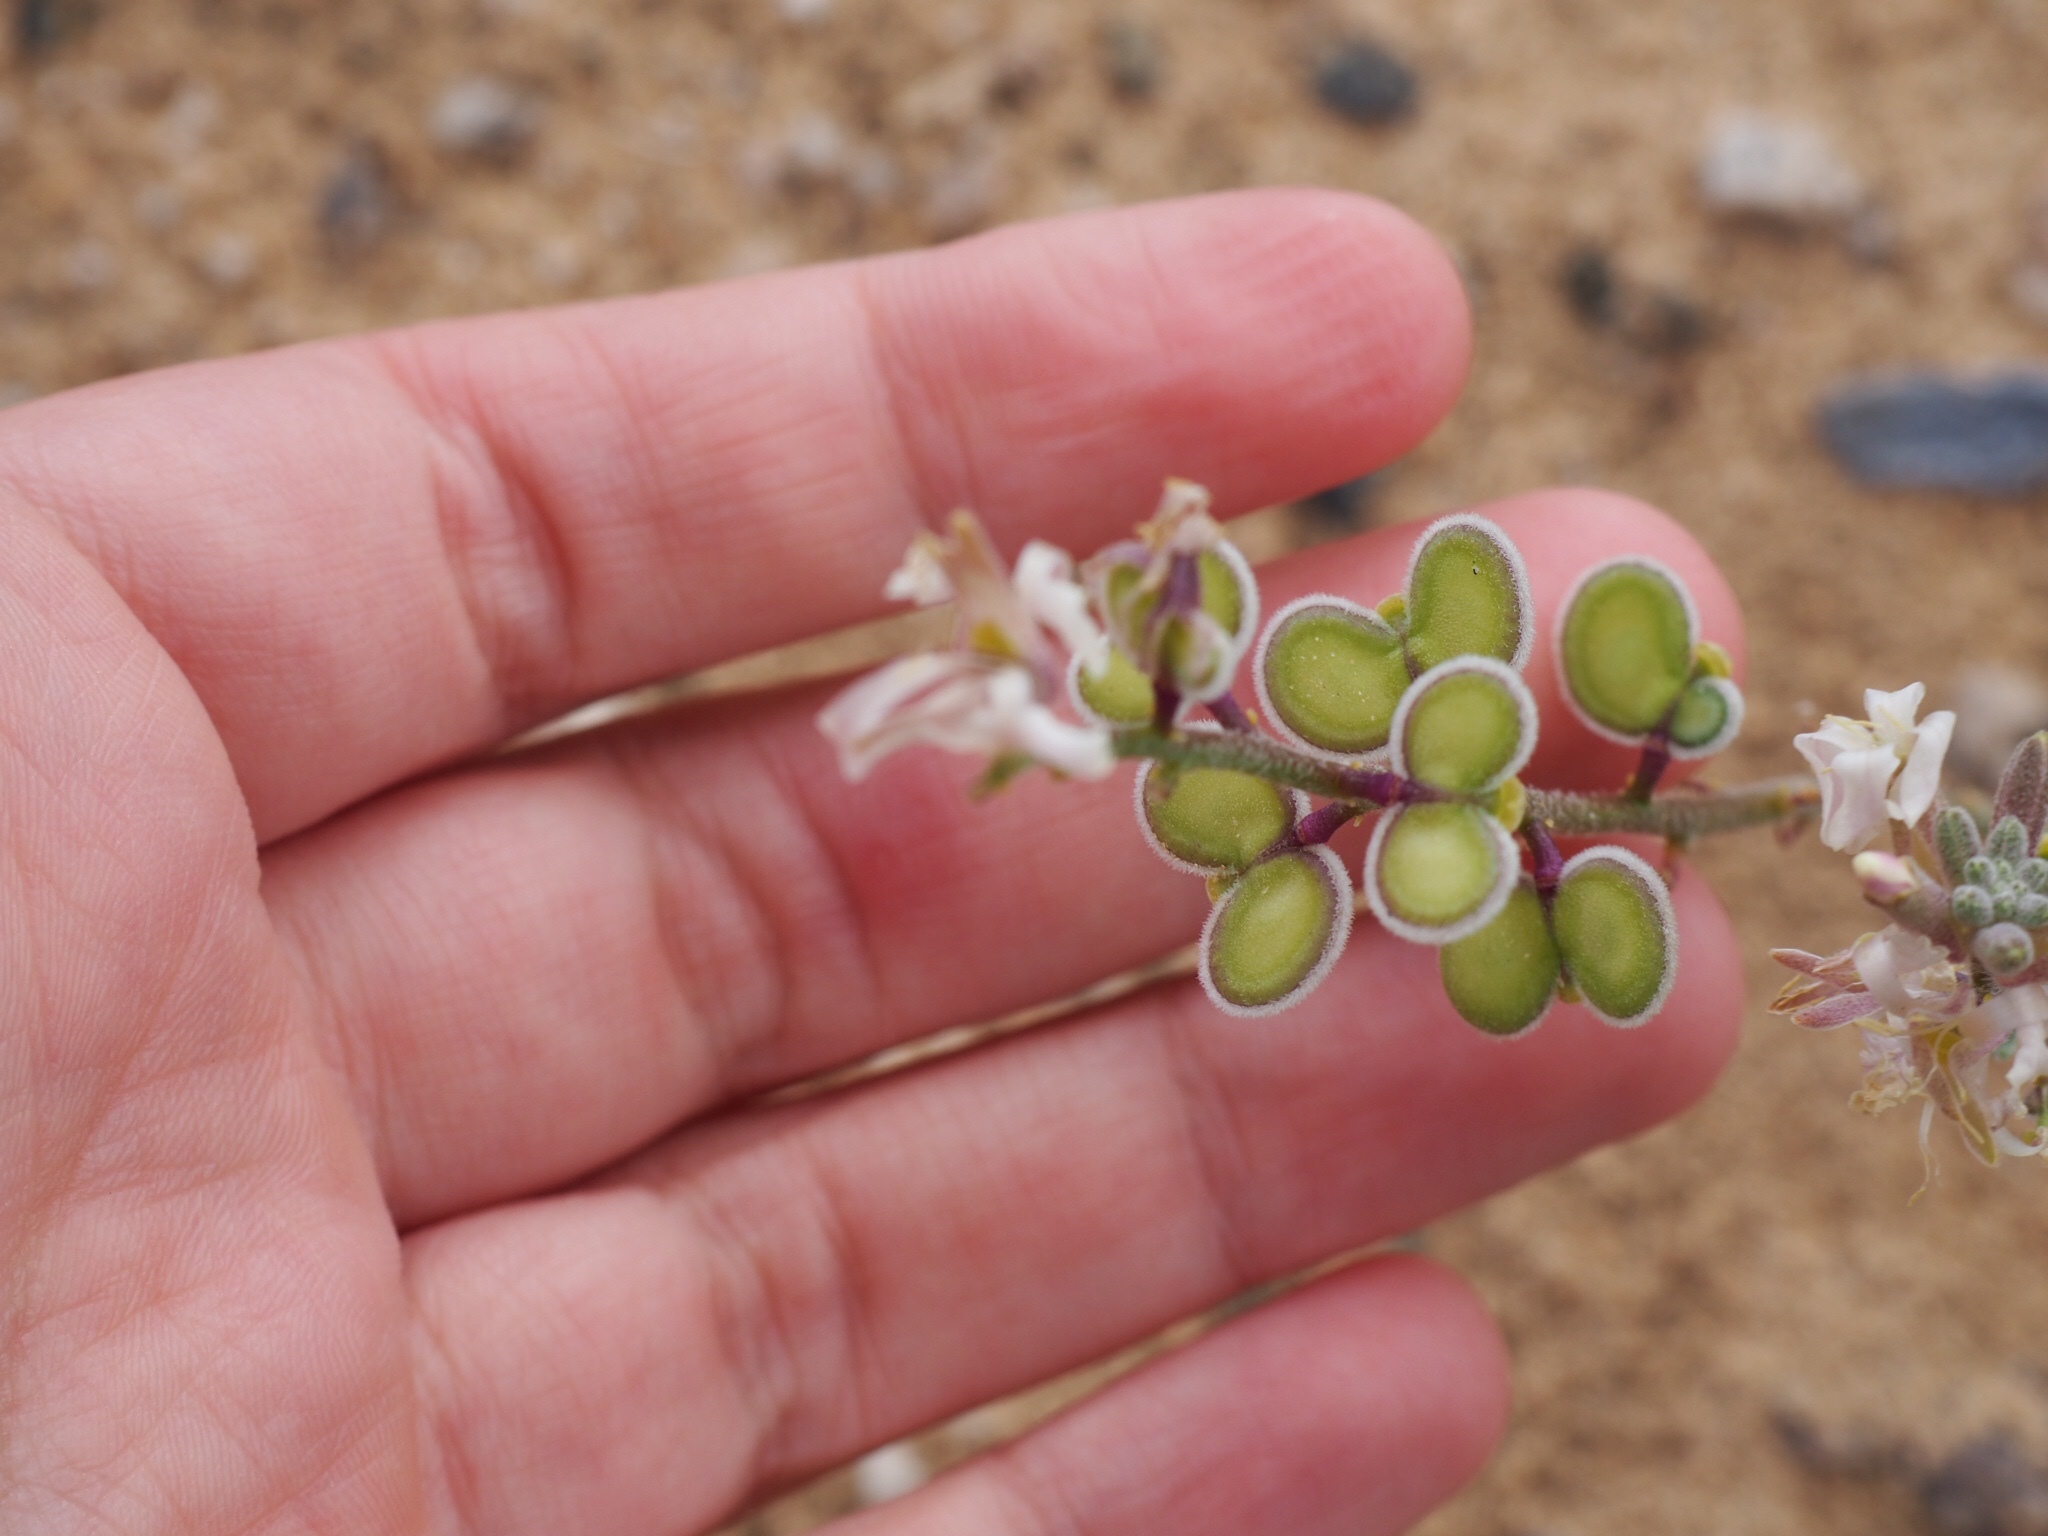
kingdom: Plantae
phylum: Tracheophyta
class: Magnoliopsida
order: Brassicales
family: Brassicaceae
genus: Dithyrea
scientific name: Dithyrea californica
